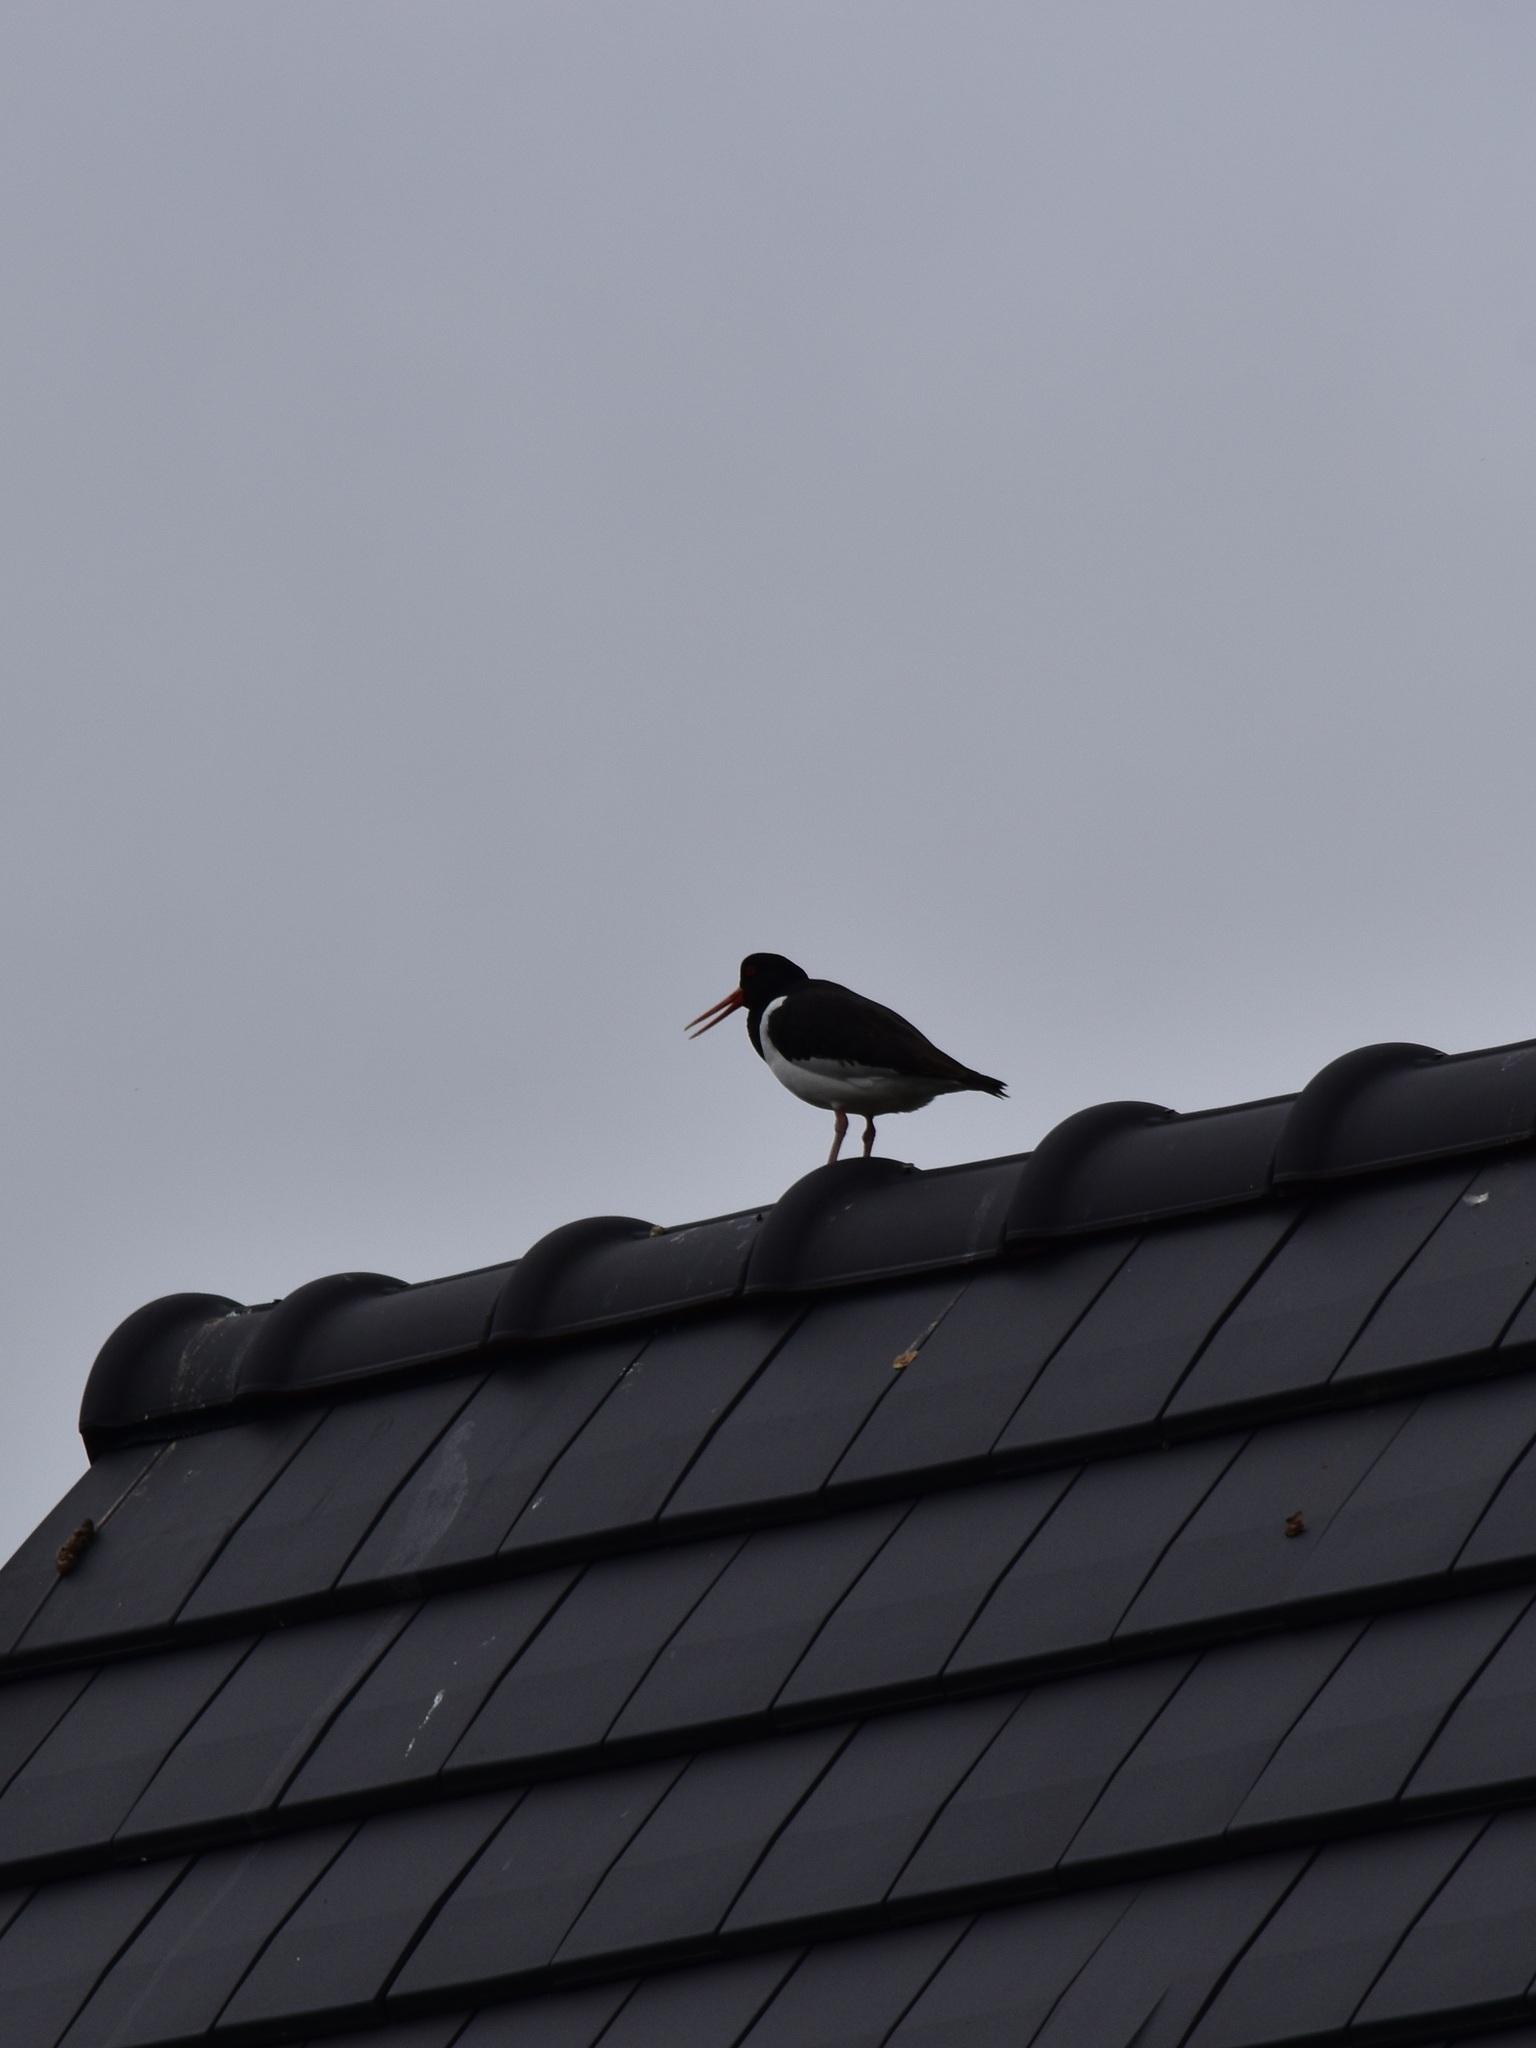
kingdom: Animalia
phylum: Chordata
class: Aves
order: Charadriiformes
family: Haematopodidae
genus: Haematopus
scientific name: Haematopus ostralegus
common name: Eurasian oystercatcher
